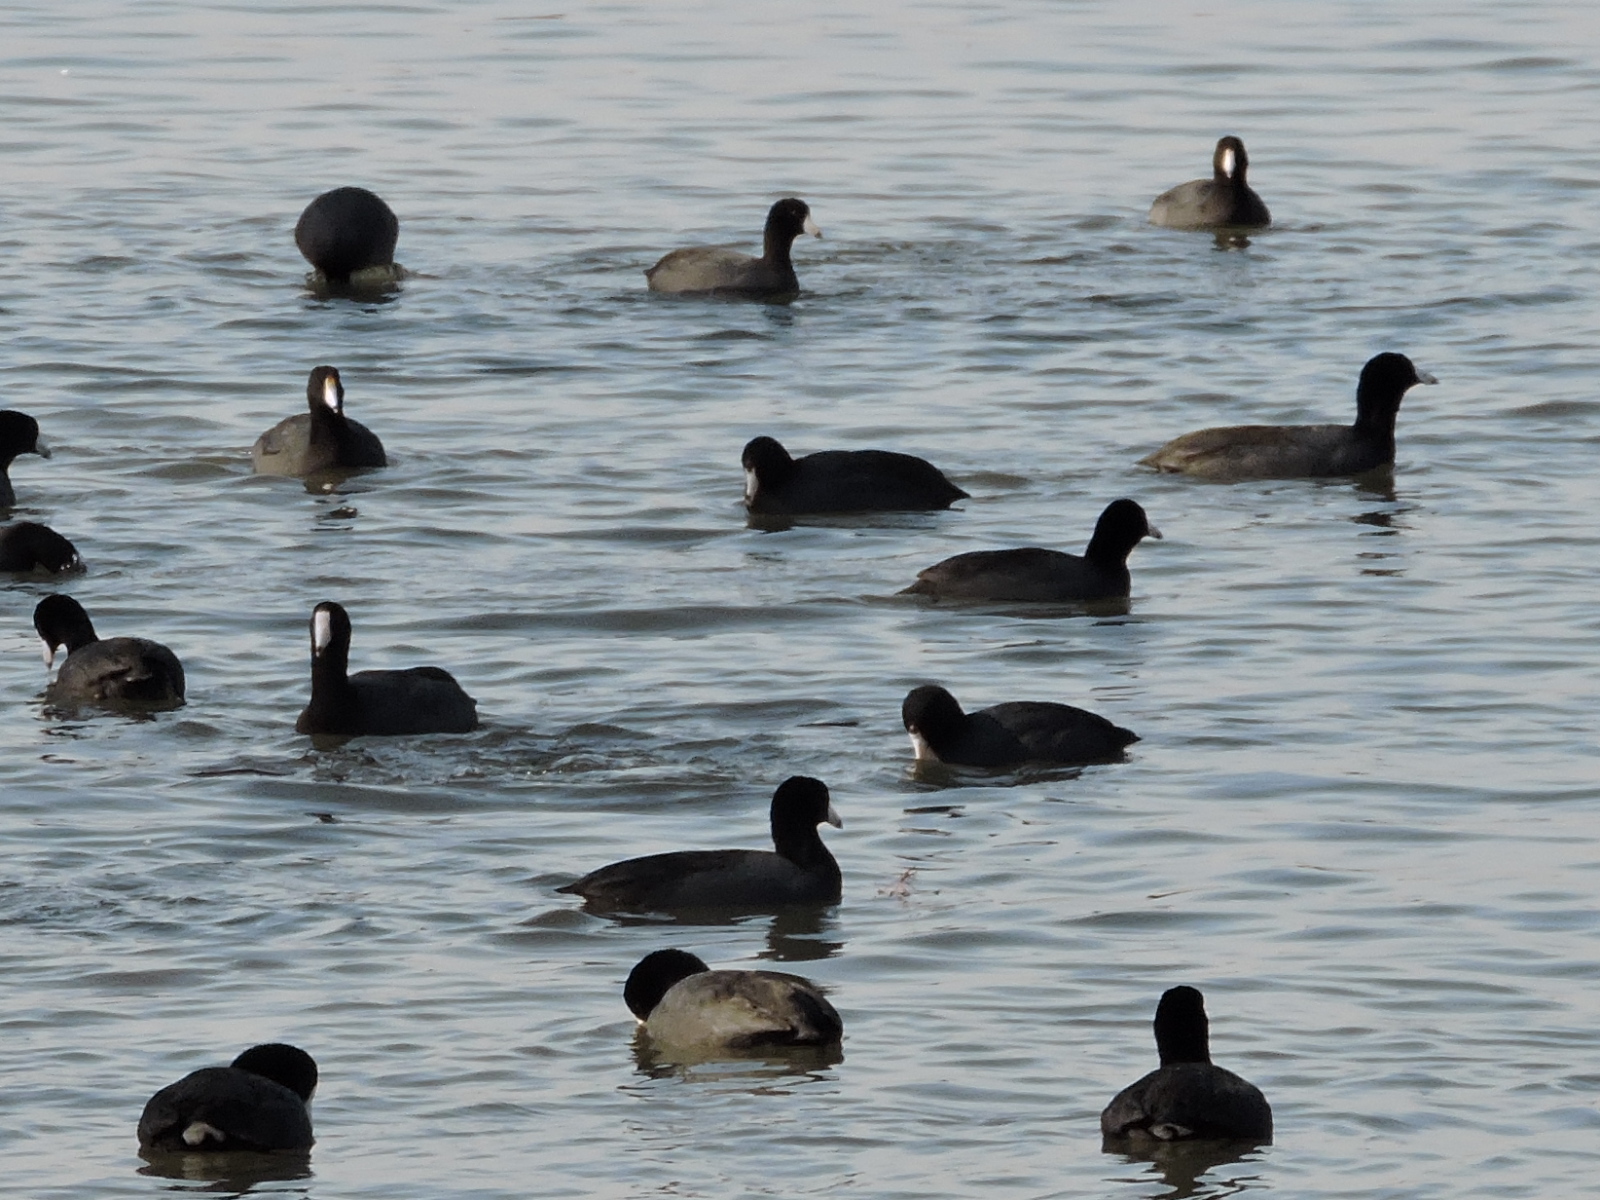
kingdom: Animalia
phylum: Chordata
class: Aves
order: Gruiformes
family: Rallidae
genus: Fulica
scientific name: Fulica americana
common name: American coot
